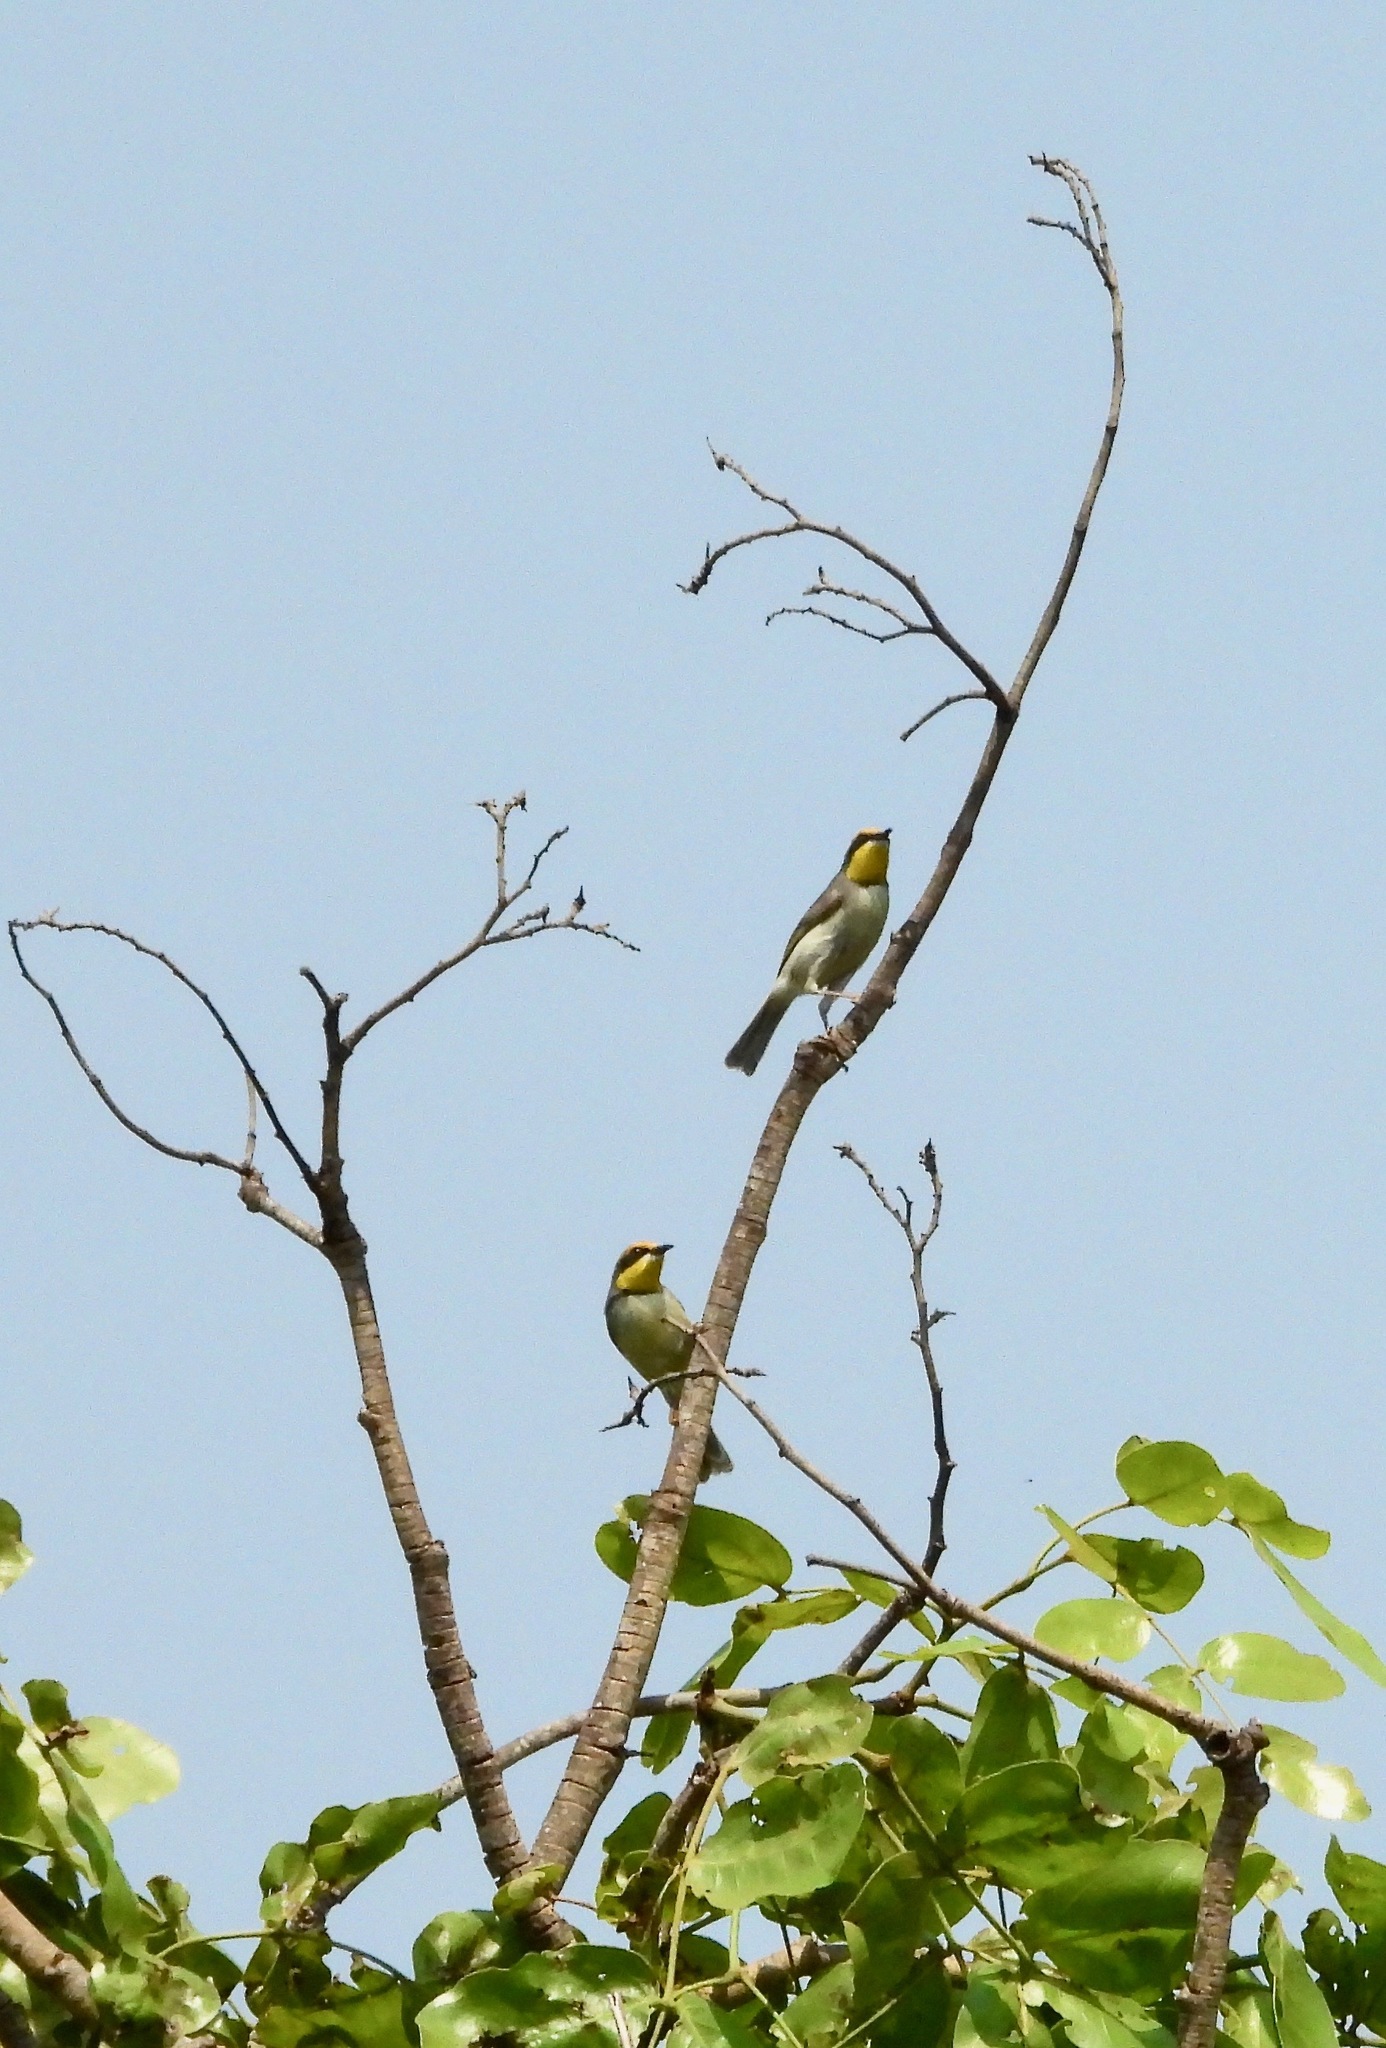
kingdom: Animalia
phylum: Chordata
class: Aves
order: Passeriformes
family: Cisticolidae
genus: Eremomela
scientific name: Eremomela atricollis
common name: Black-necked eremomela
